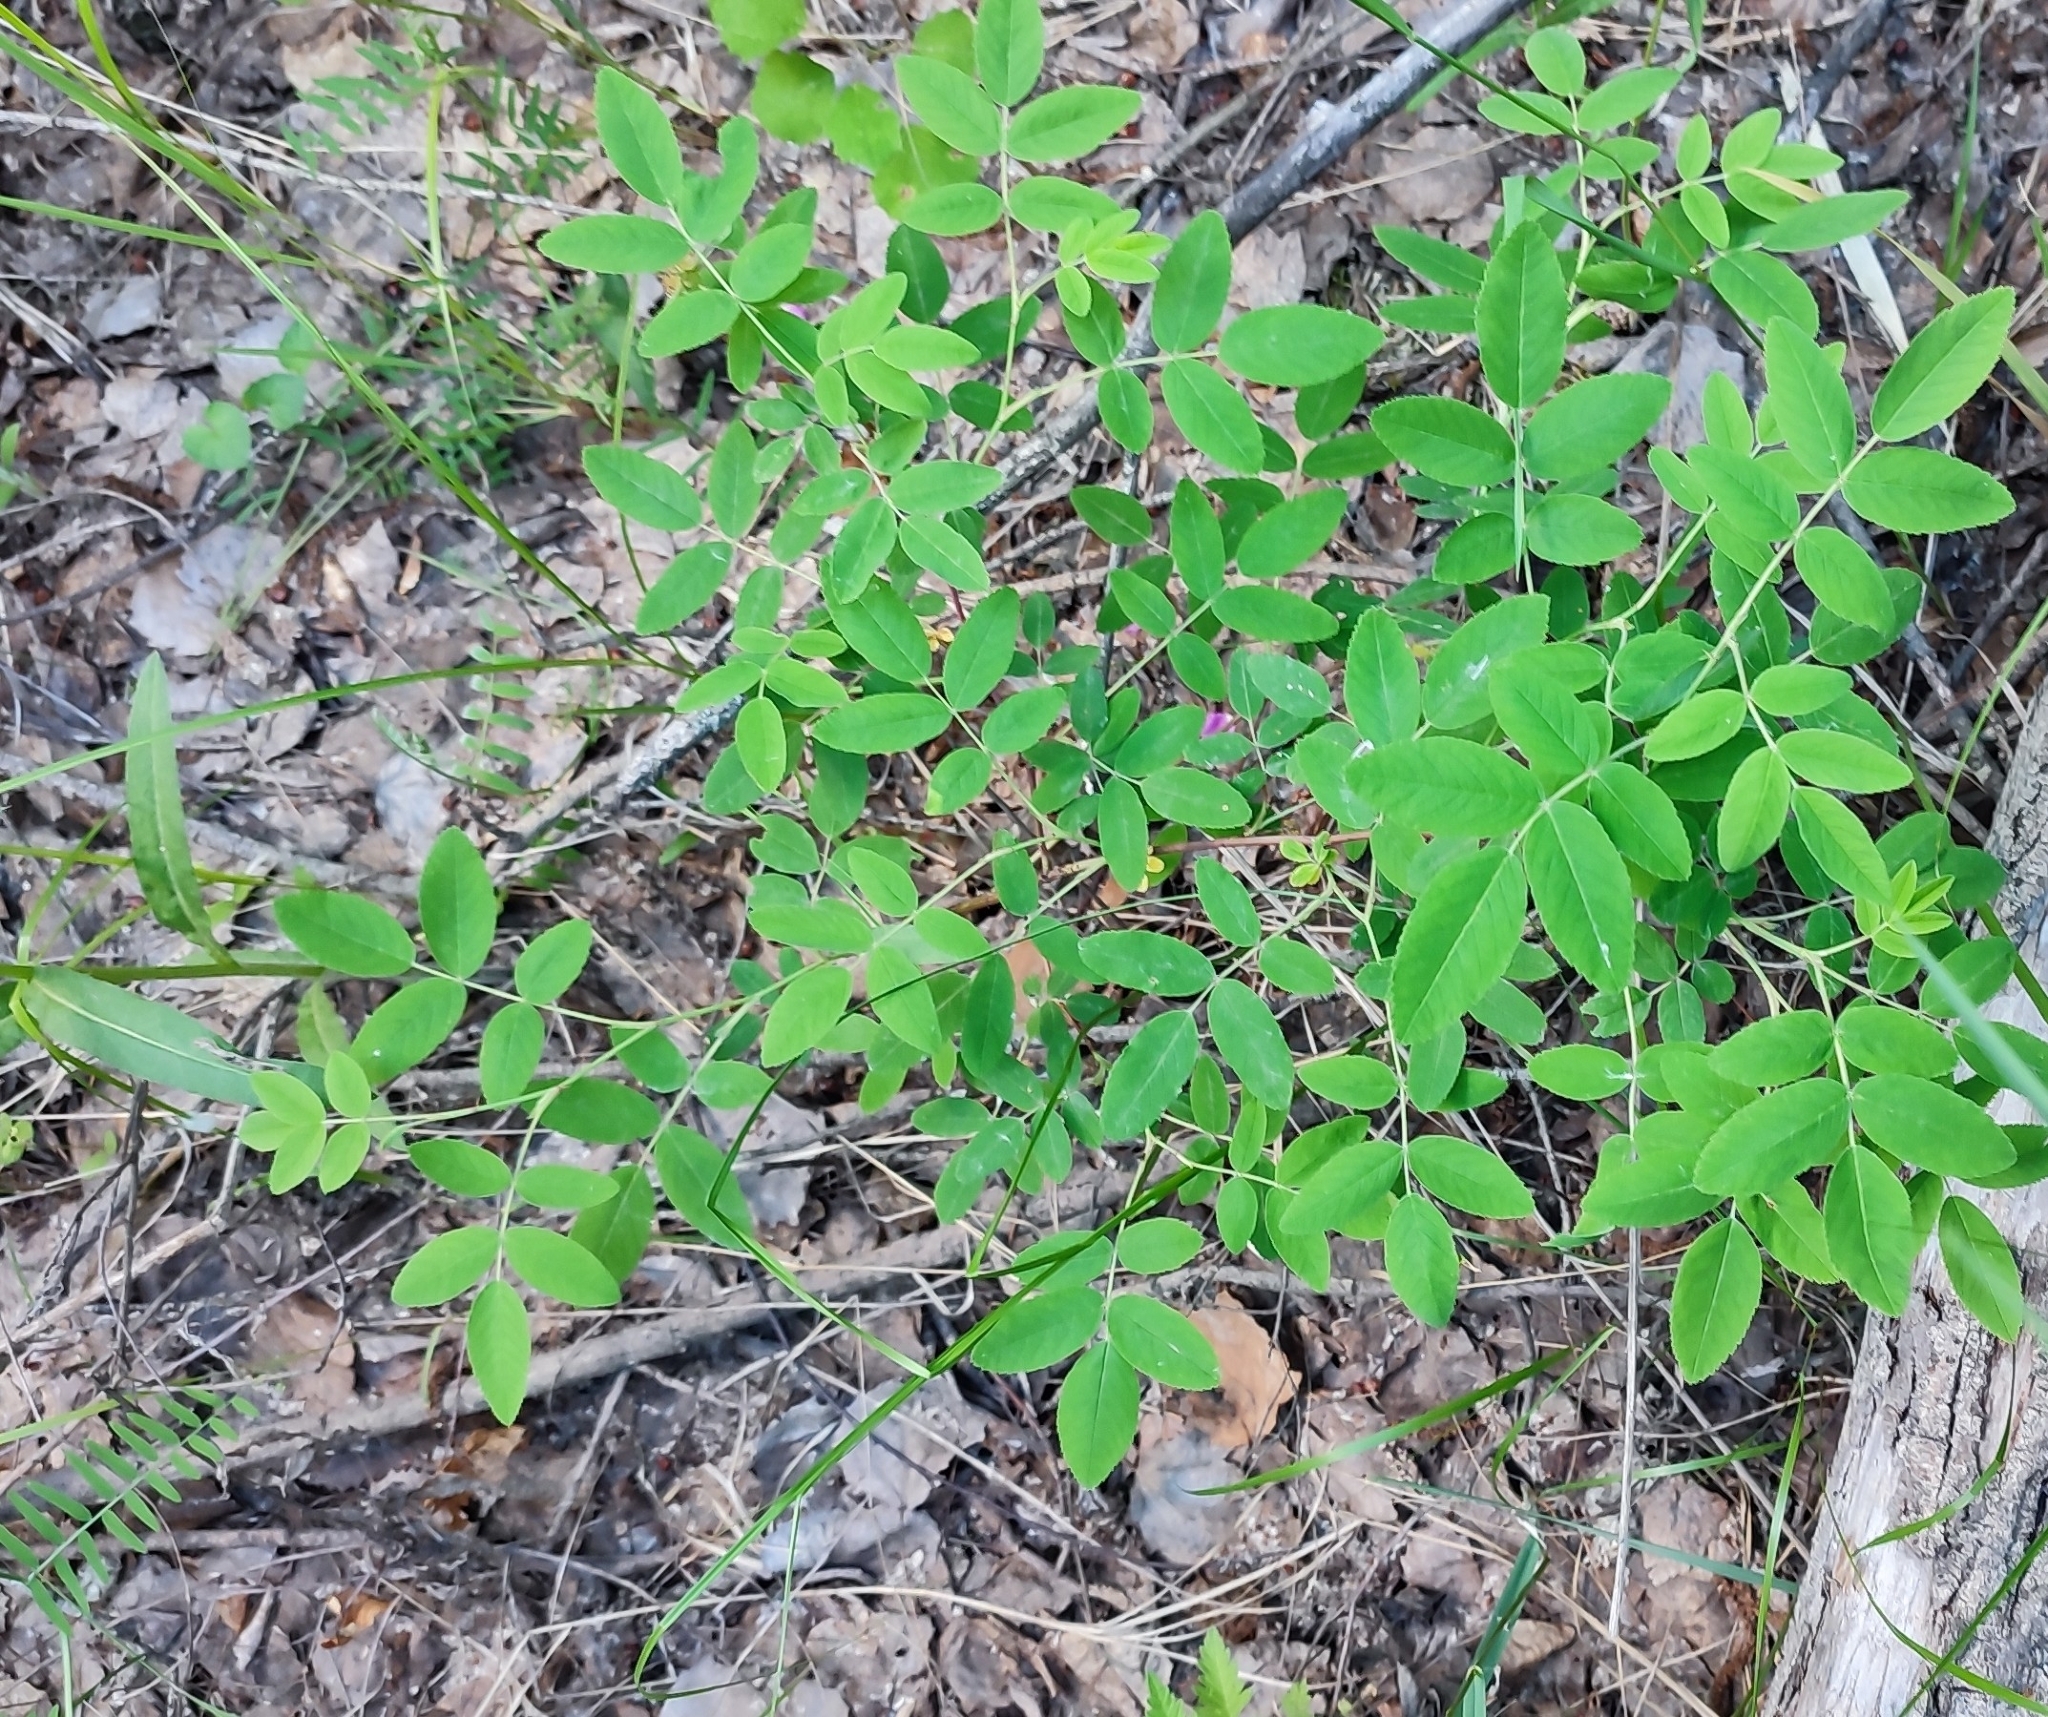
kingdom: Plantae
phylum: Tracheophyta
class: Magnoliopsida
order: Rosales
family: Rosaceae
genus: Rosa
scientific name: Rosa majalis
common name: Cinnamon rose
